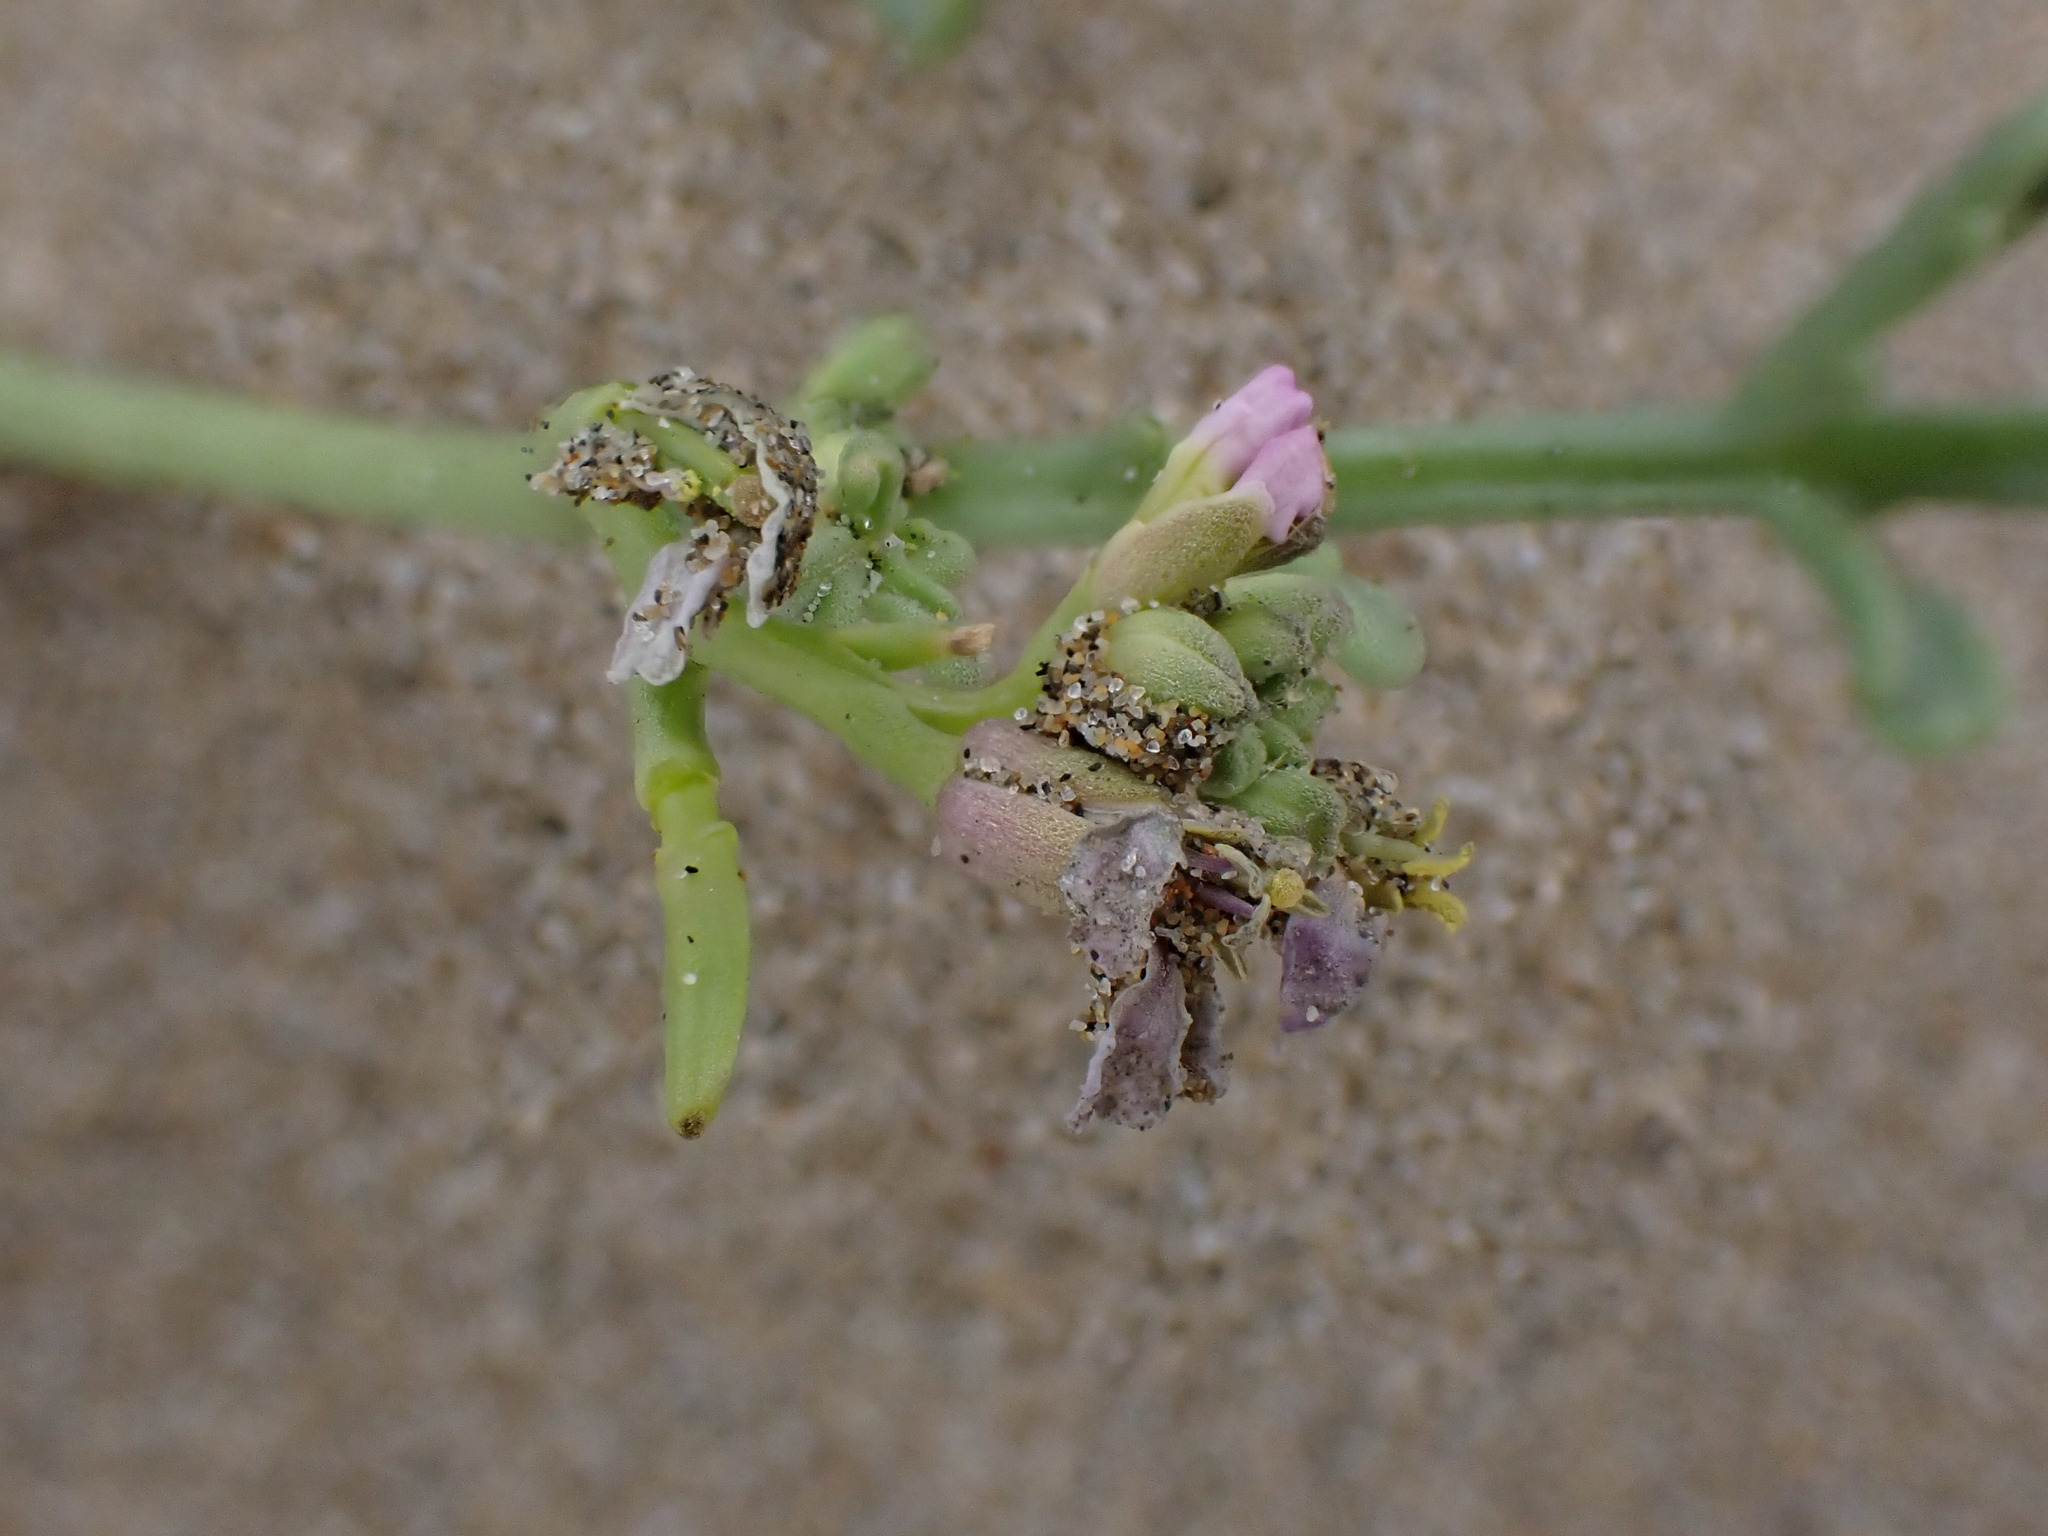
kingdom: Plantae
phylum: Tracheophyta
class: Magnoliopsida
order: Brassicales
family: Brassicaceae
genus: Cakile
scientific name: Cakile maritima
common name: Sea rocket
